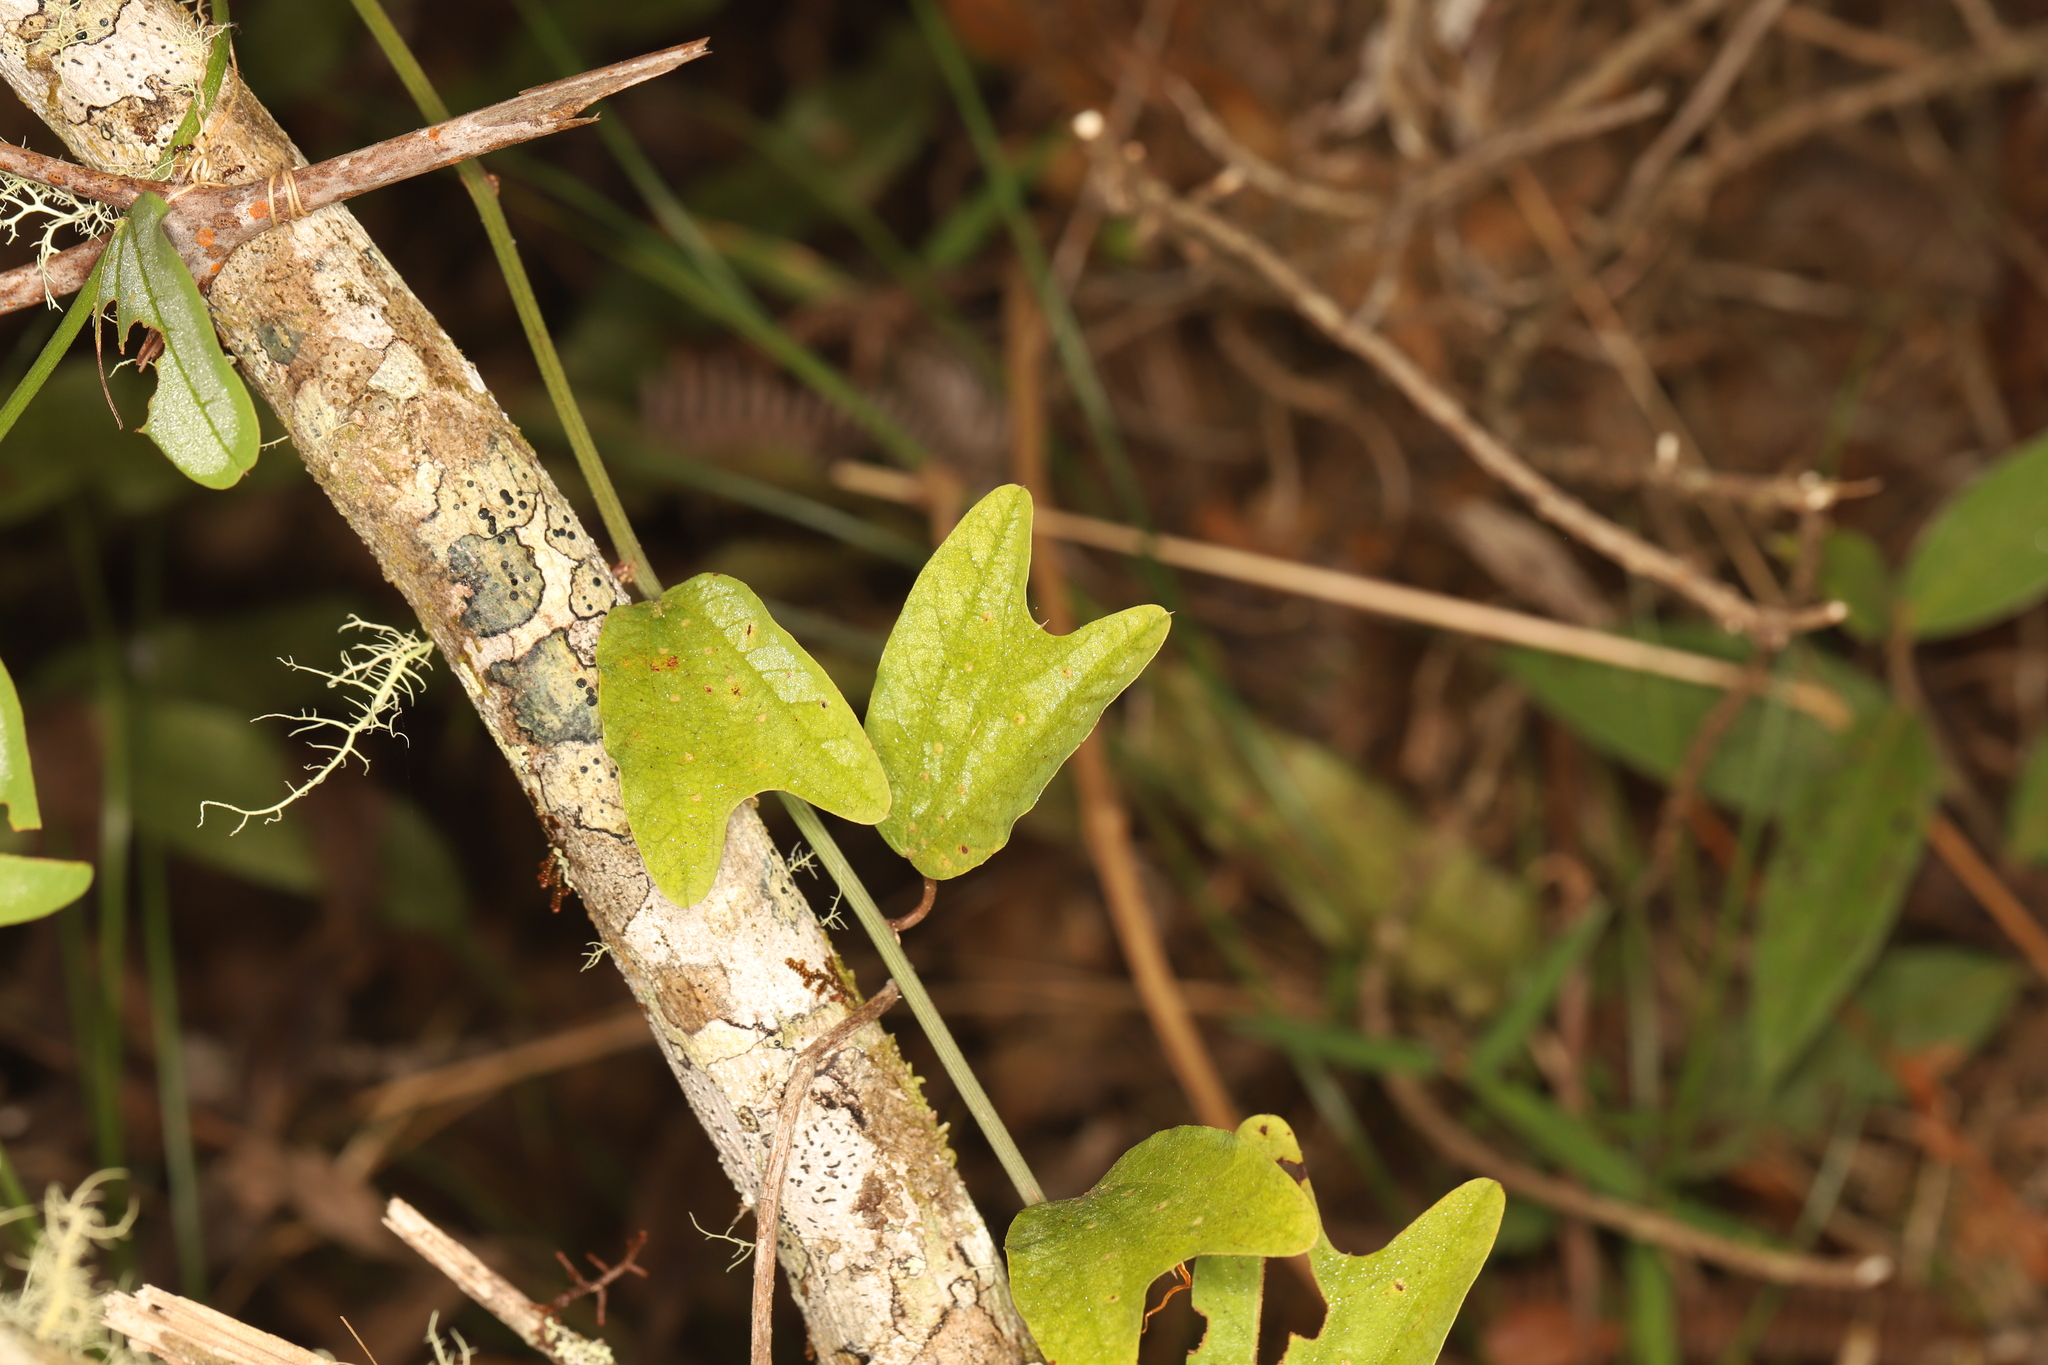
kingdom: Plantae
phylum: Tracheophyta
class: Magnoliopsida
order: Malpighiales
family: Passifloraceae
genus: Passiflora
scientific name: Passiflora bogotensis
